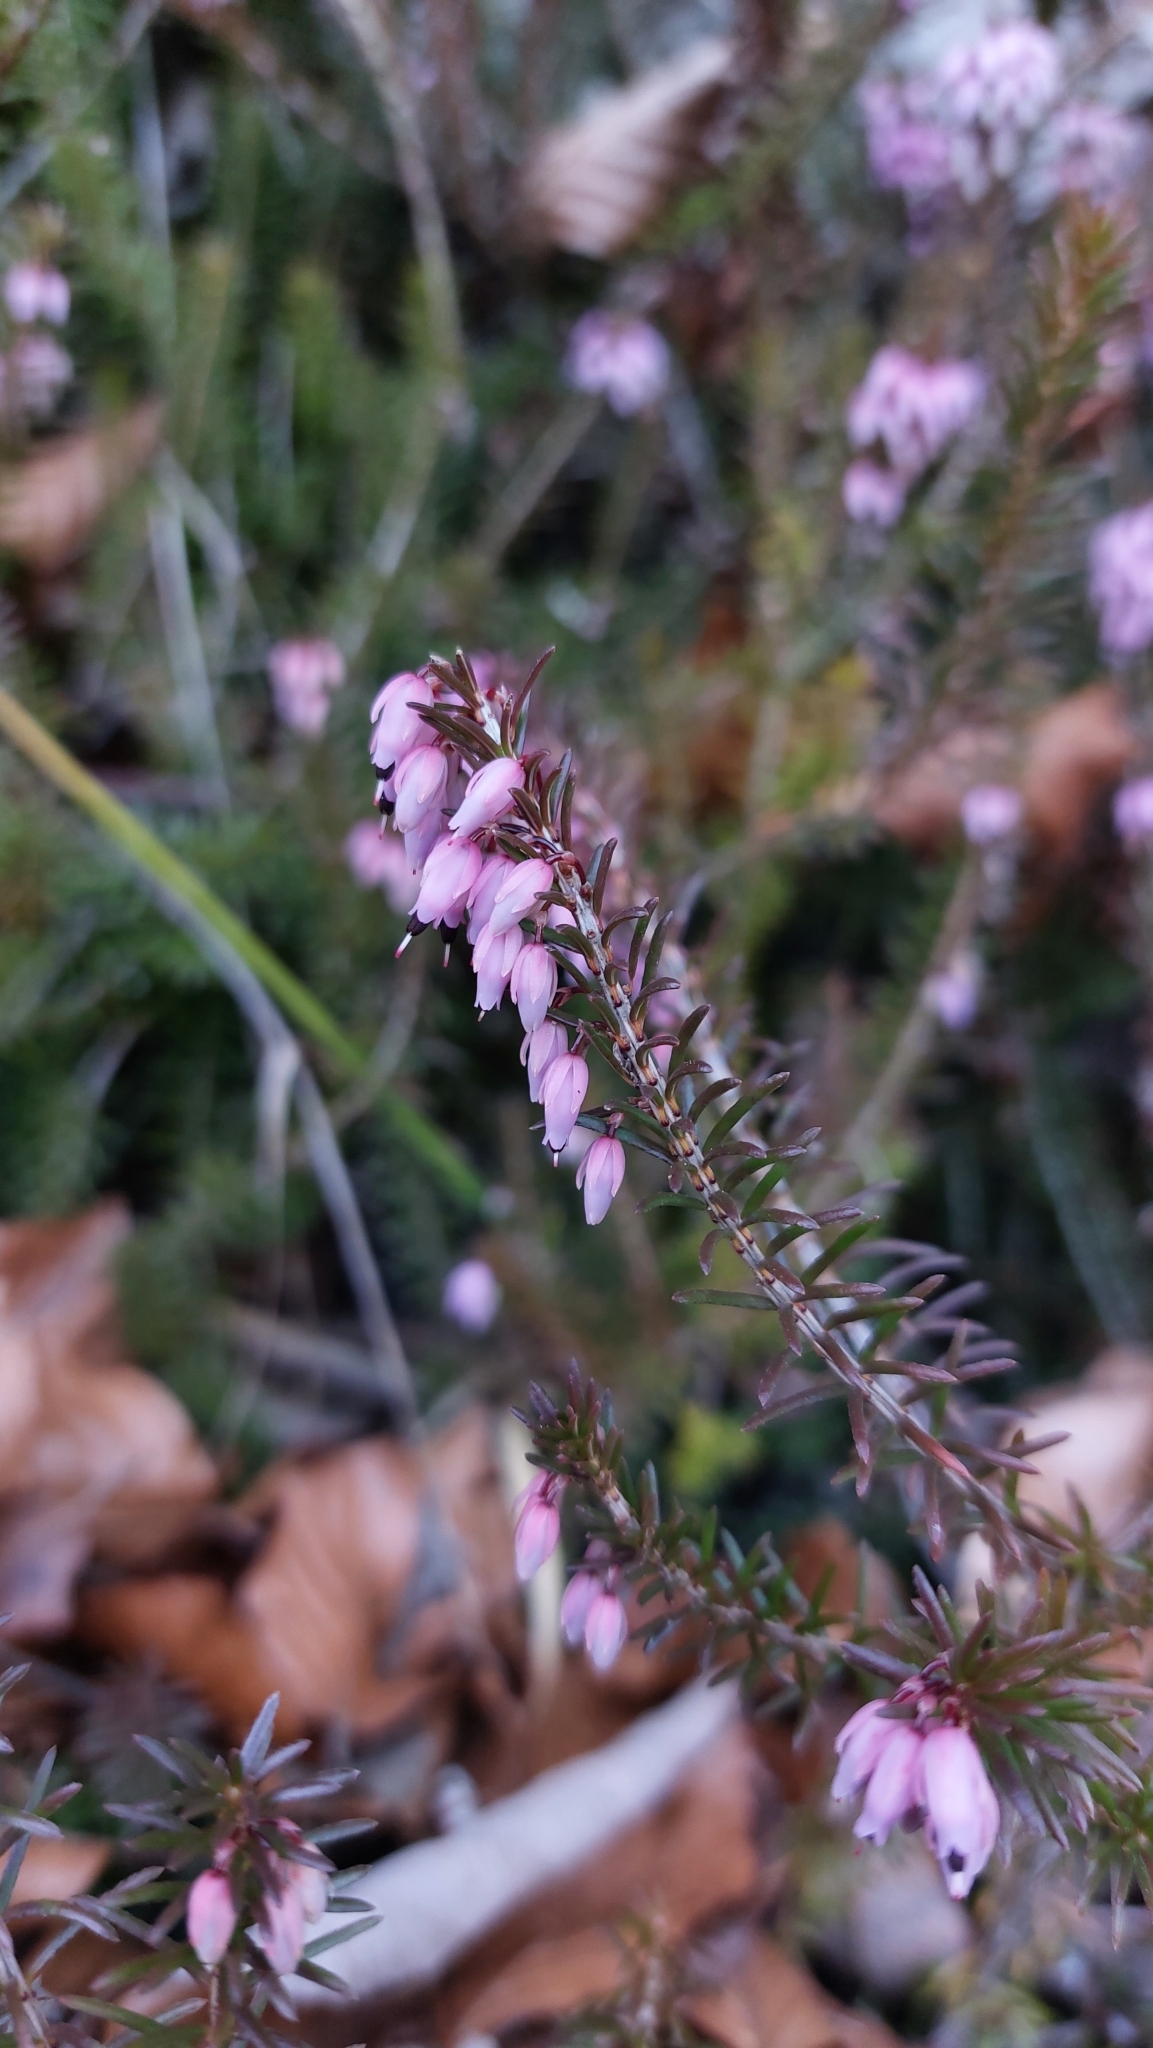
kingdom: Plantae
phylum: Tracheophyta
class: Magnoliopsida
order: Ericales
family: Ericaceae
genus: Erica
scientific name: Erica carnea
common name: Winter heath
